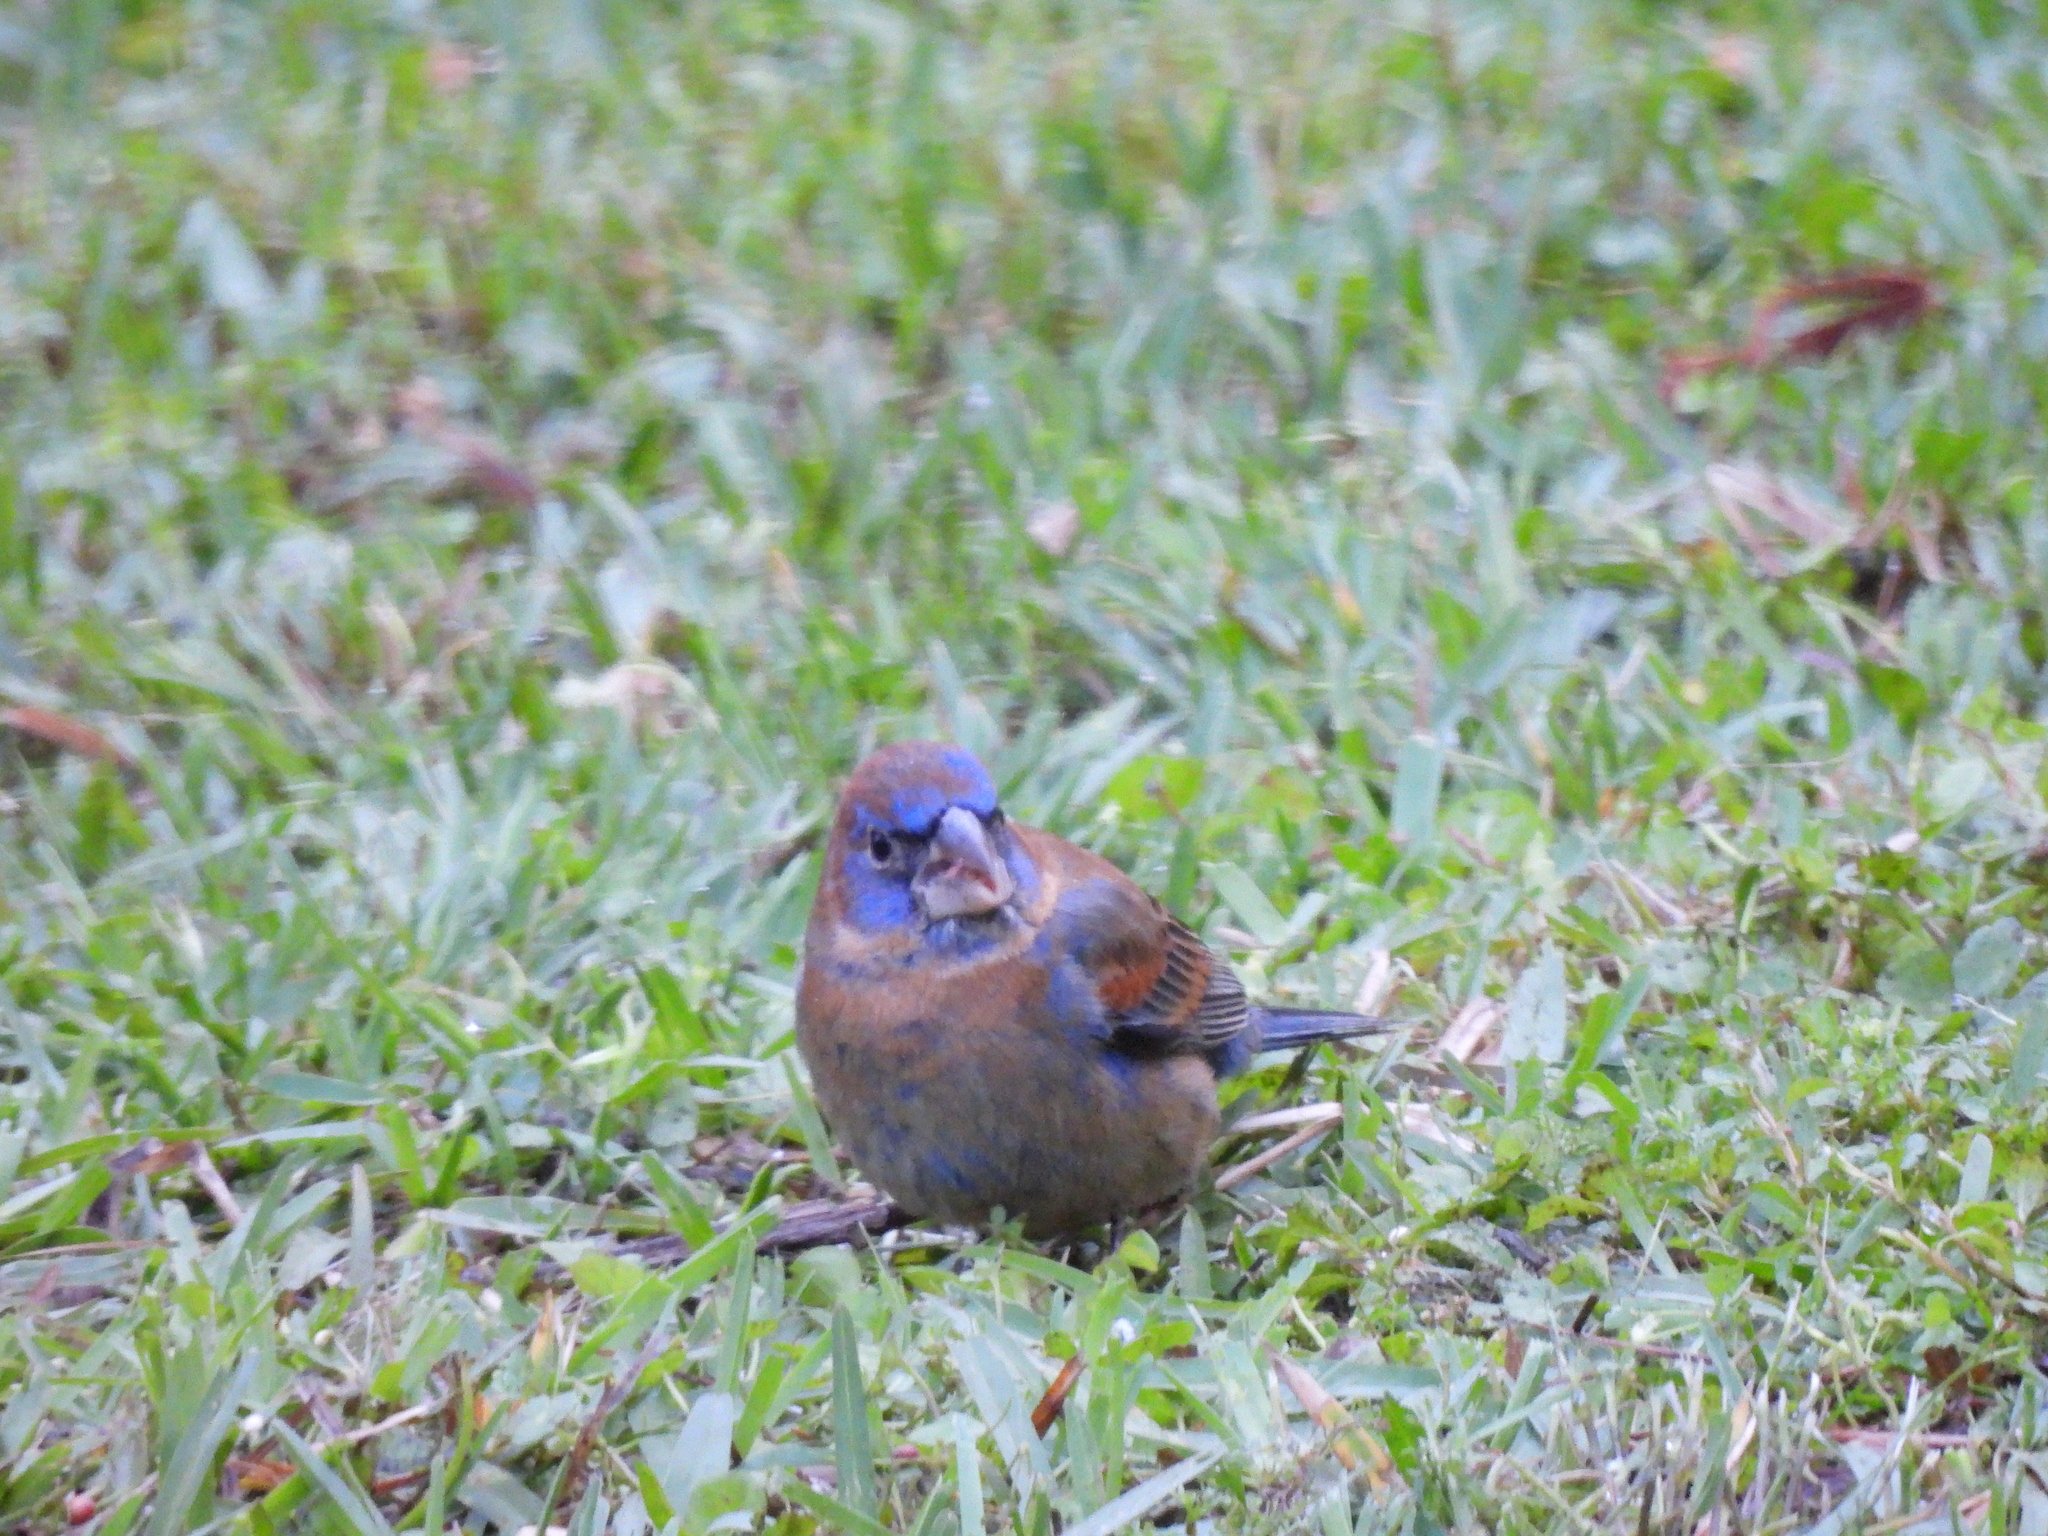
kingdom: Animalia
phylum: Chordata
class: Aves
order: Passeriformes
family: Cardinalidae
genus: Passerina
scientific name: Passerina caerulea
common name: Blue grosbeak
